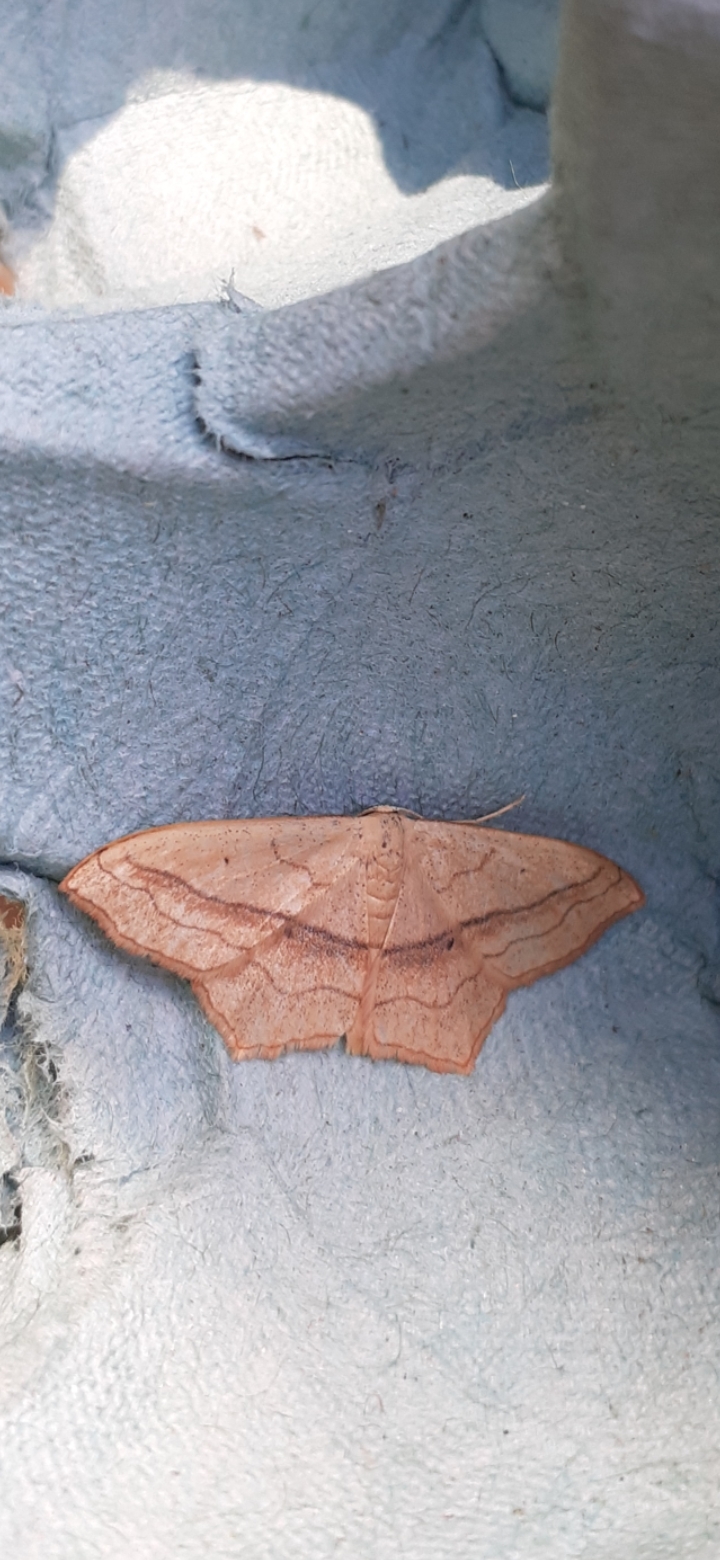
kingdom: Animalia
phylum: Arthropoda
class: Insecta
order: Lepidoptera
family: Geometridae
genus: Scopula
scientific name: Scopula imitaria
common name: Small blood-vein
